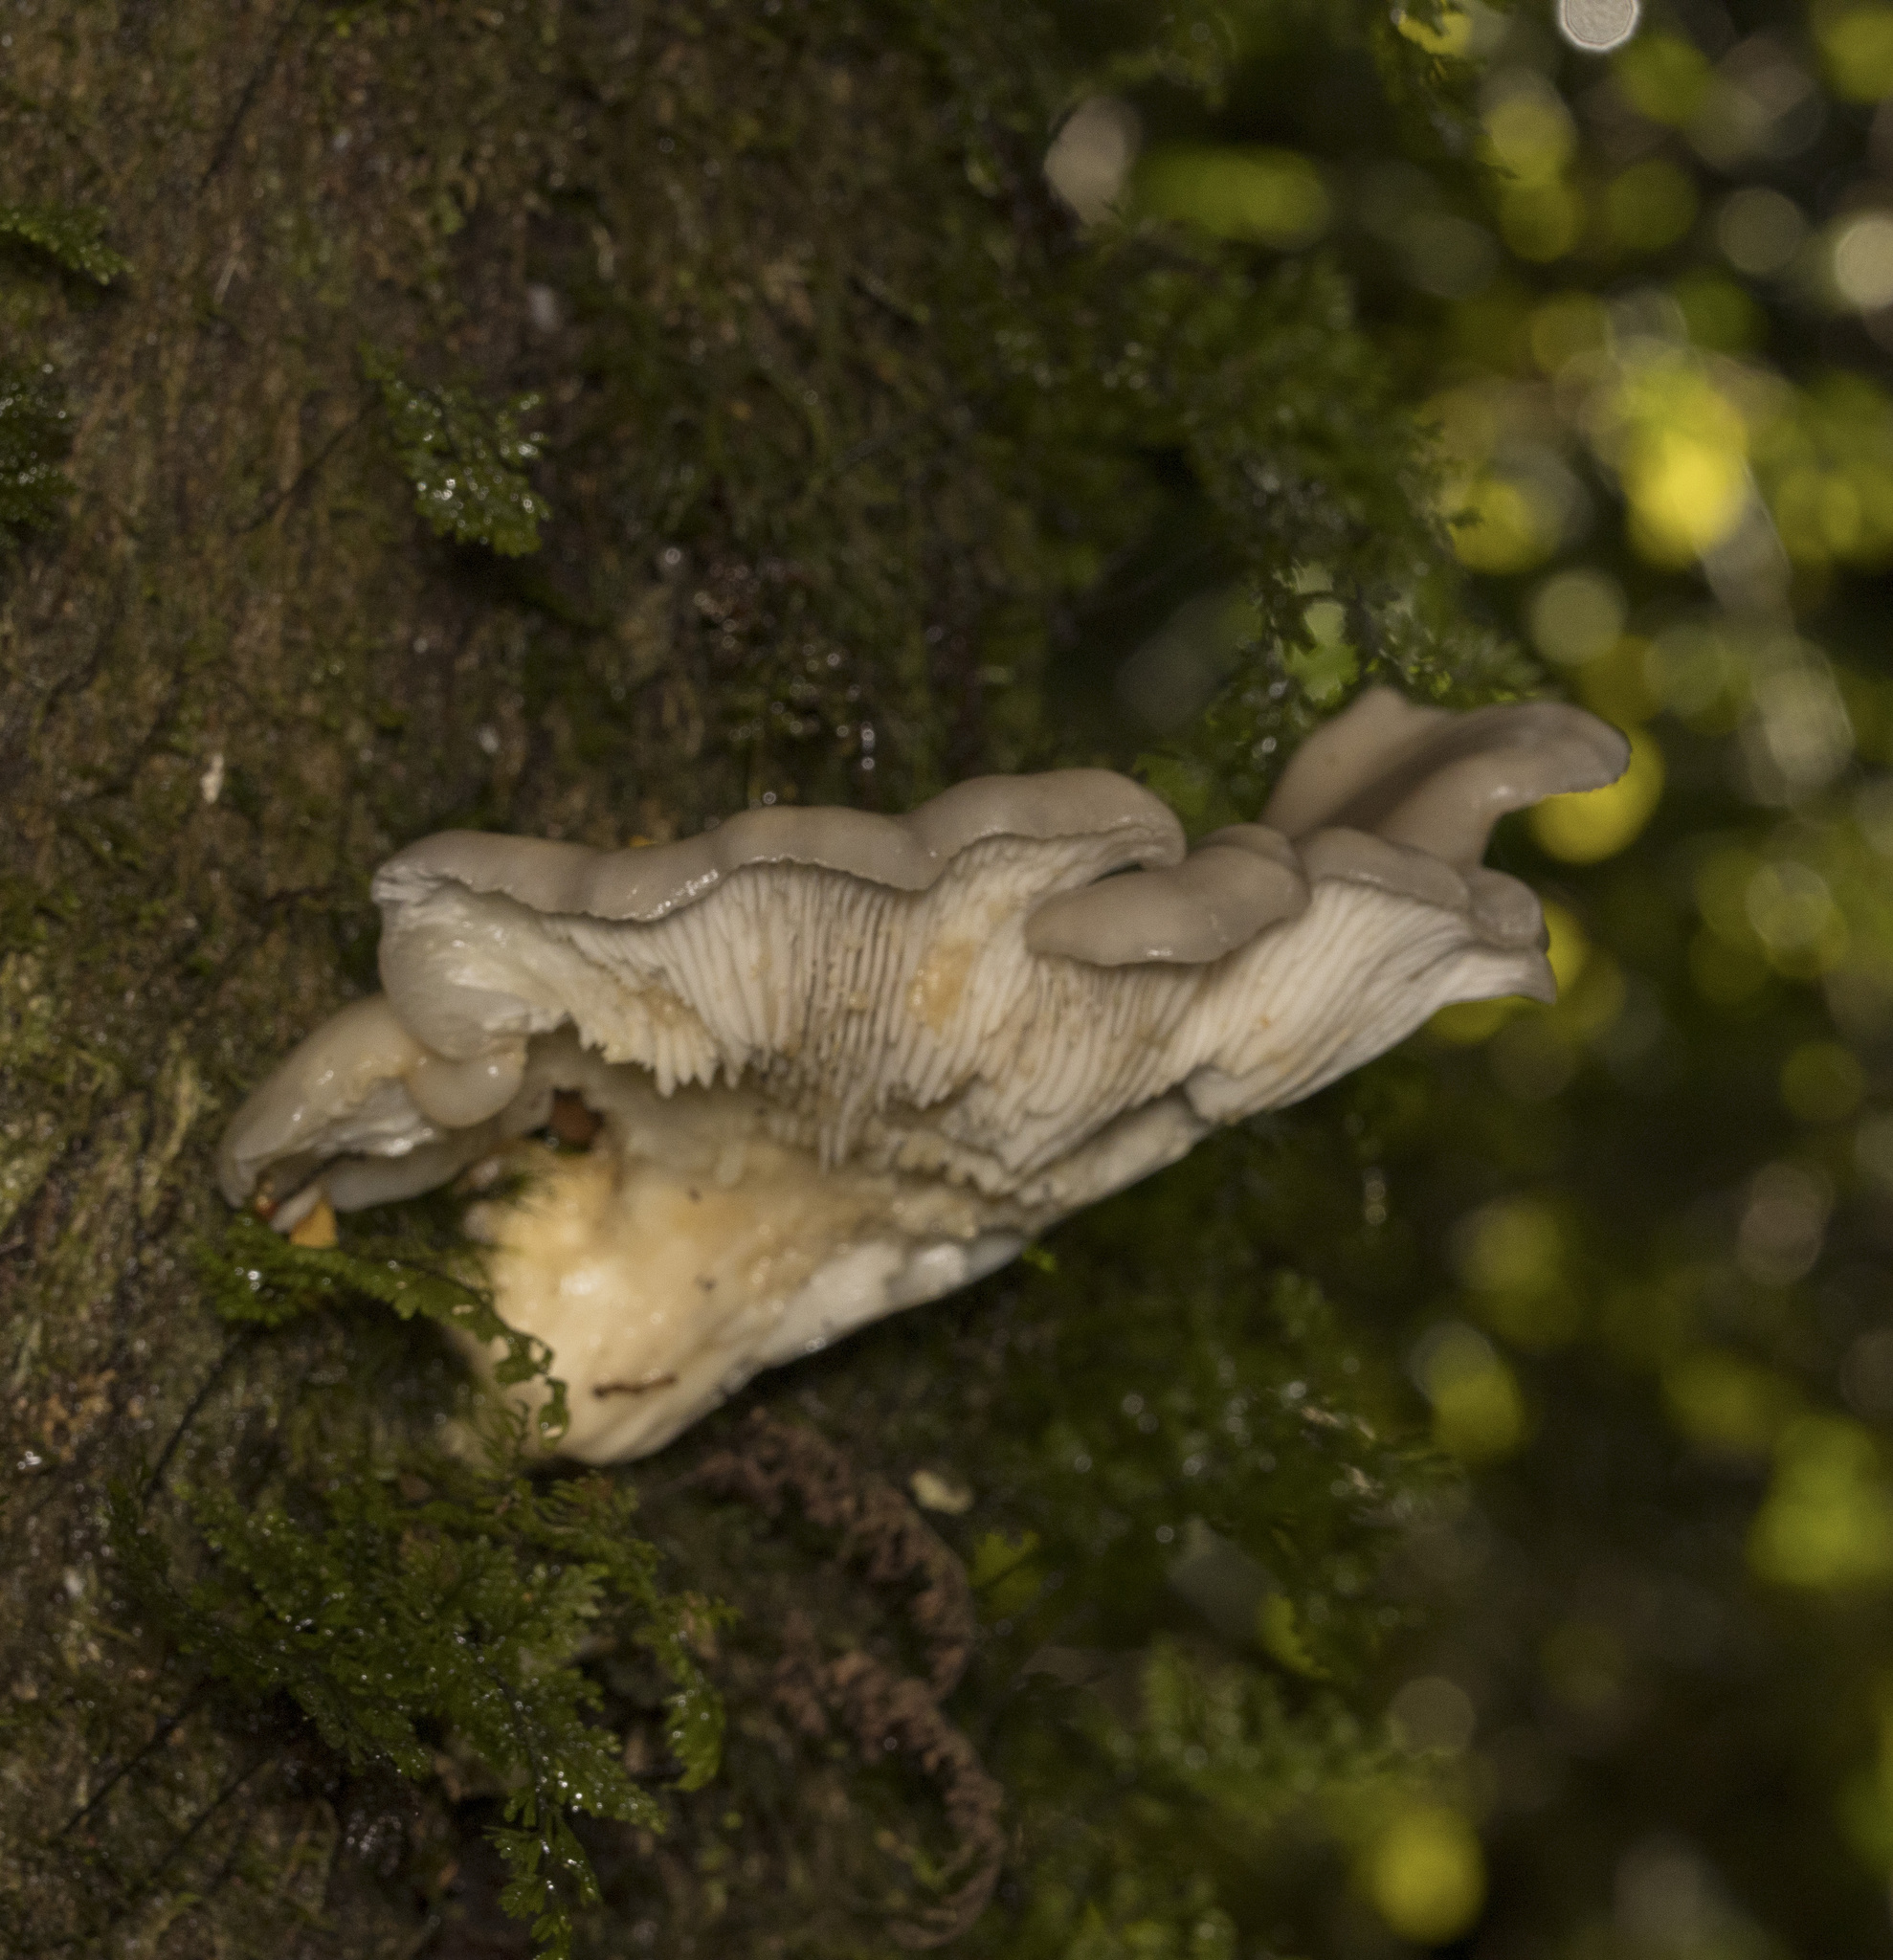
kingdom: Fungi
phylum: Basidiomycota
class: Agaricomycetes
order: Agaricales
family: Pleurotaceae
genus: Pleurotus
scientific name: Pleurotus ostreatus
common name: Oyster mushroom
